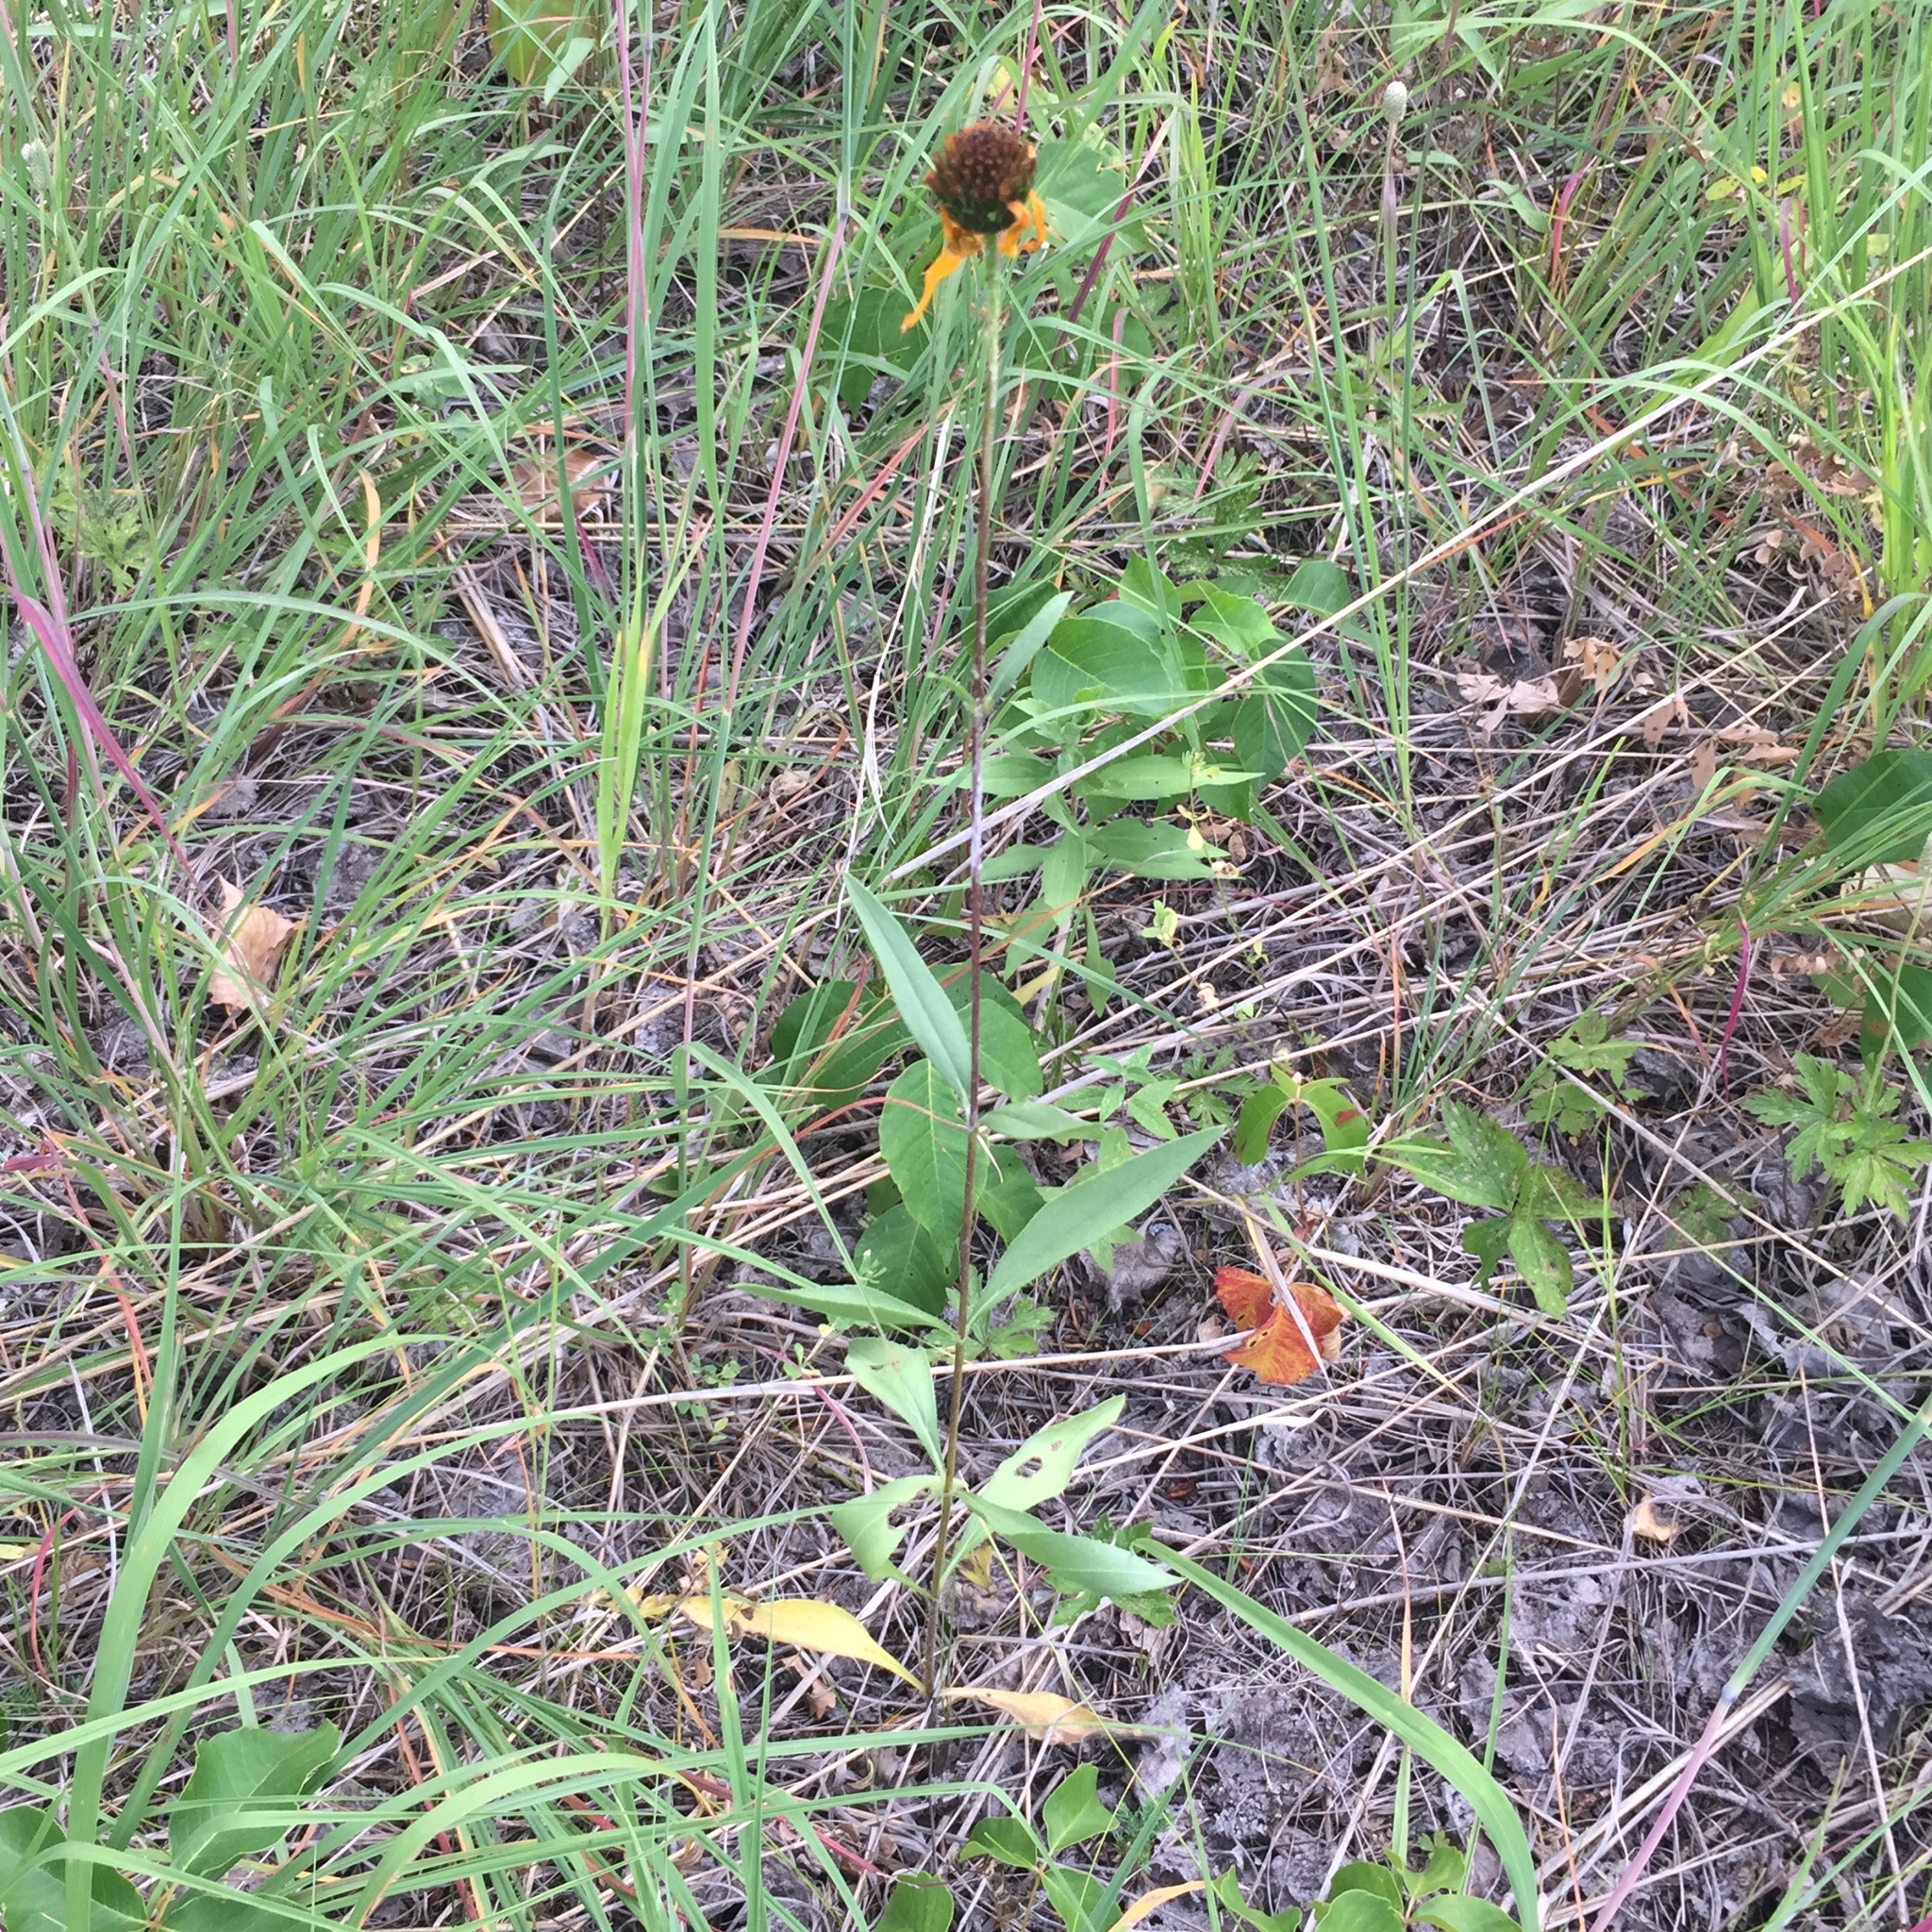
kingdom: Plantae
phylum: Tracheophyta
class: Magnoliopsida
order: Asterales
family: Asteraceae
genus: Helianthus
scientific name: Helianthus pauciflorus
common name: Stiff sunflower
